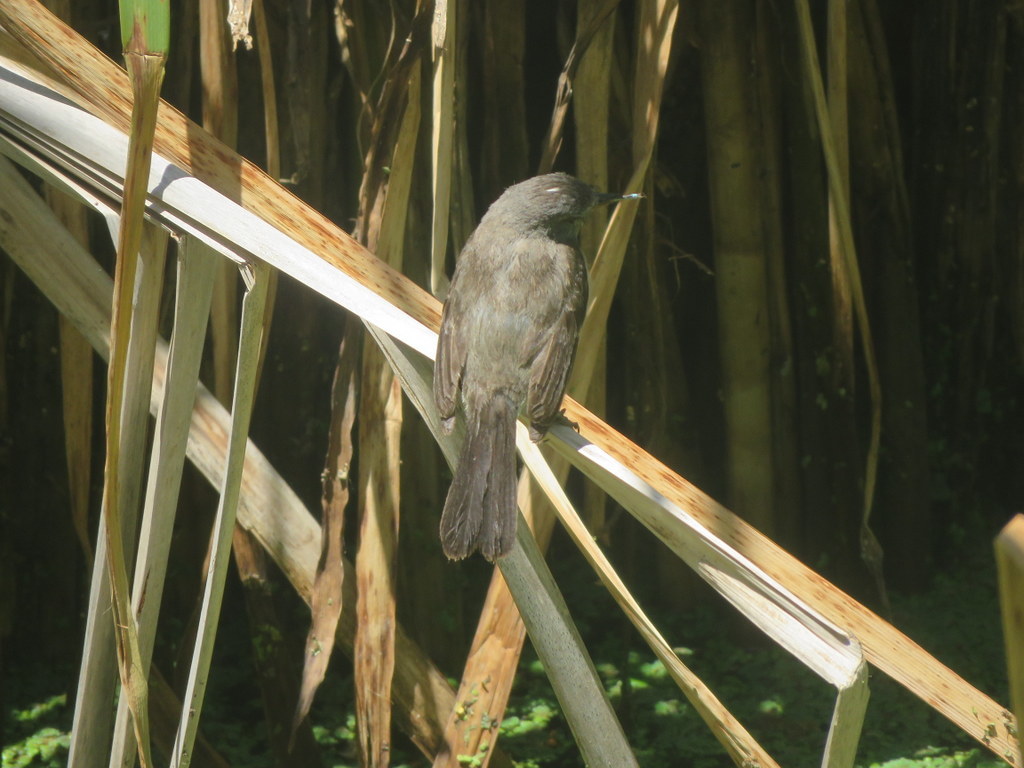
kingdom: Animalia
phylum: Chordata
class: Aves
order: Passeriformes
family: Tyrannidae
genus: Serpophaga
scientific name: Serpophaga nigricans
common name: Sooty tyrannulet
